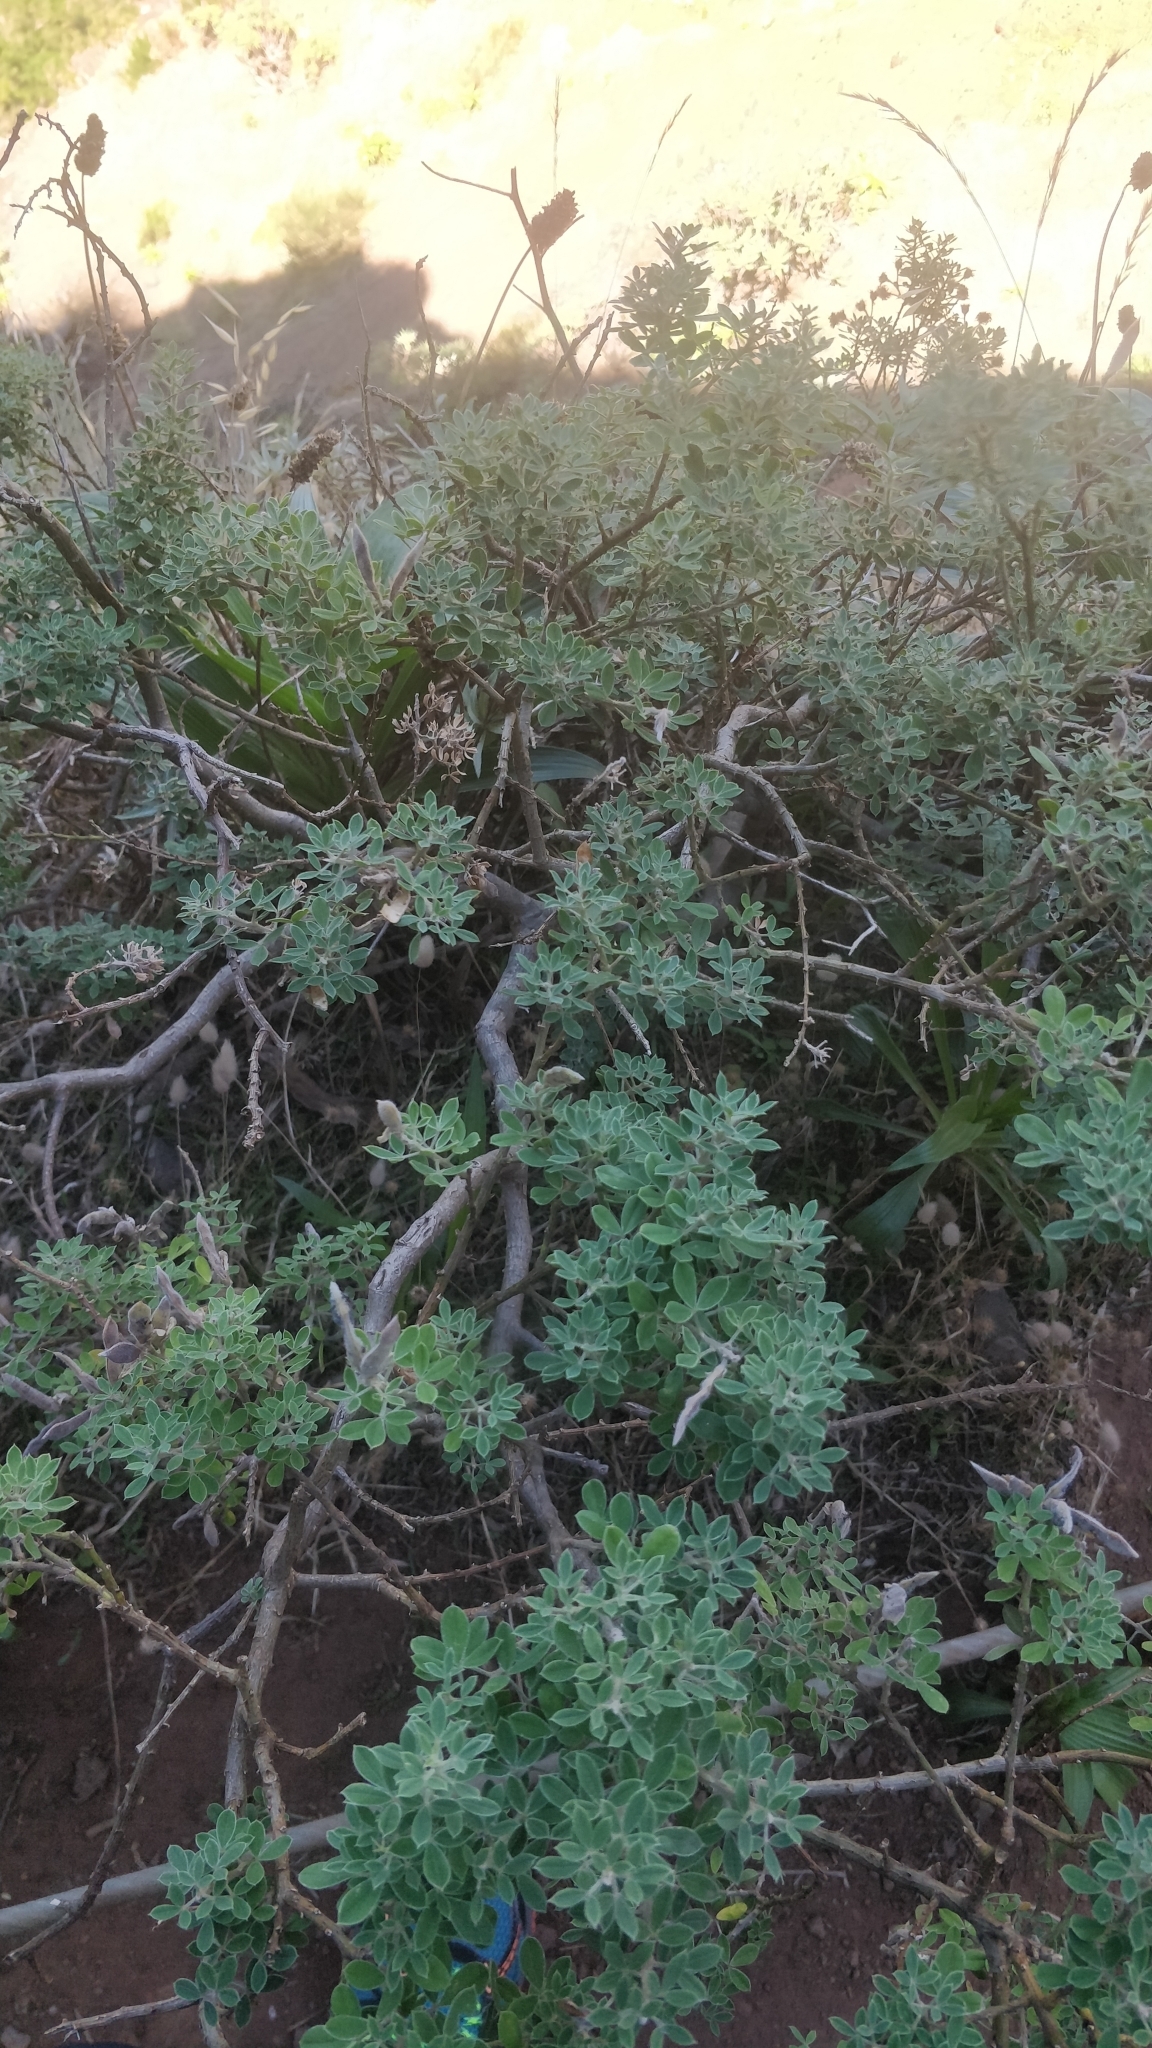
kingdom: Plantae
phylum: Tracheophyta
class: Magnoliopsida
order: Fabales
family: Fabaceae
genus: Genista
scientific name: Genista maderensis
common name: Madeira dyer's greenweed
